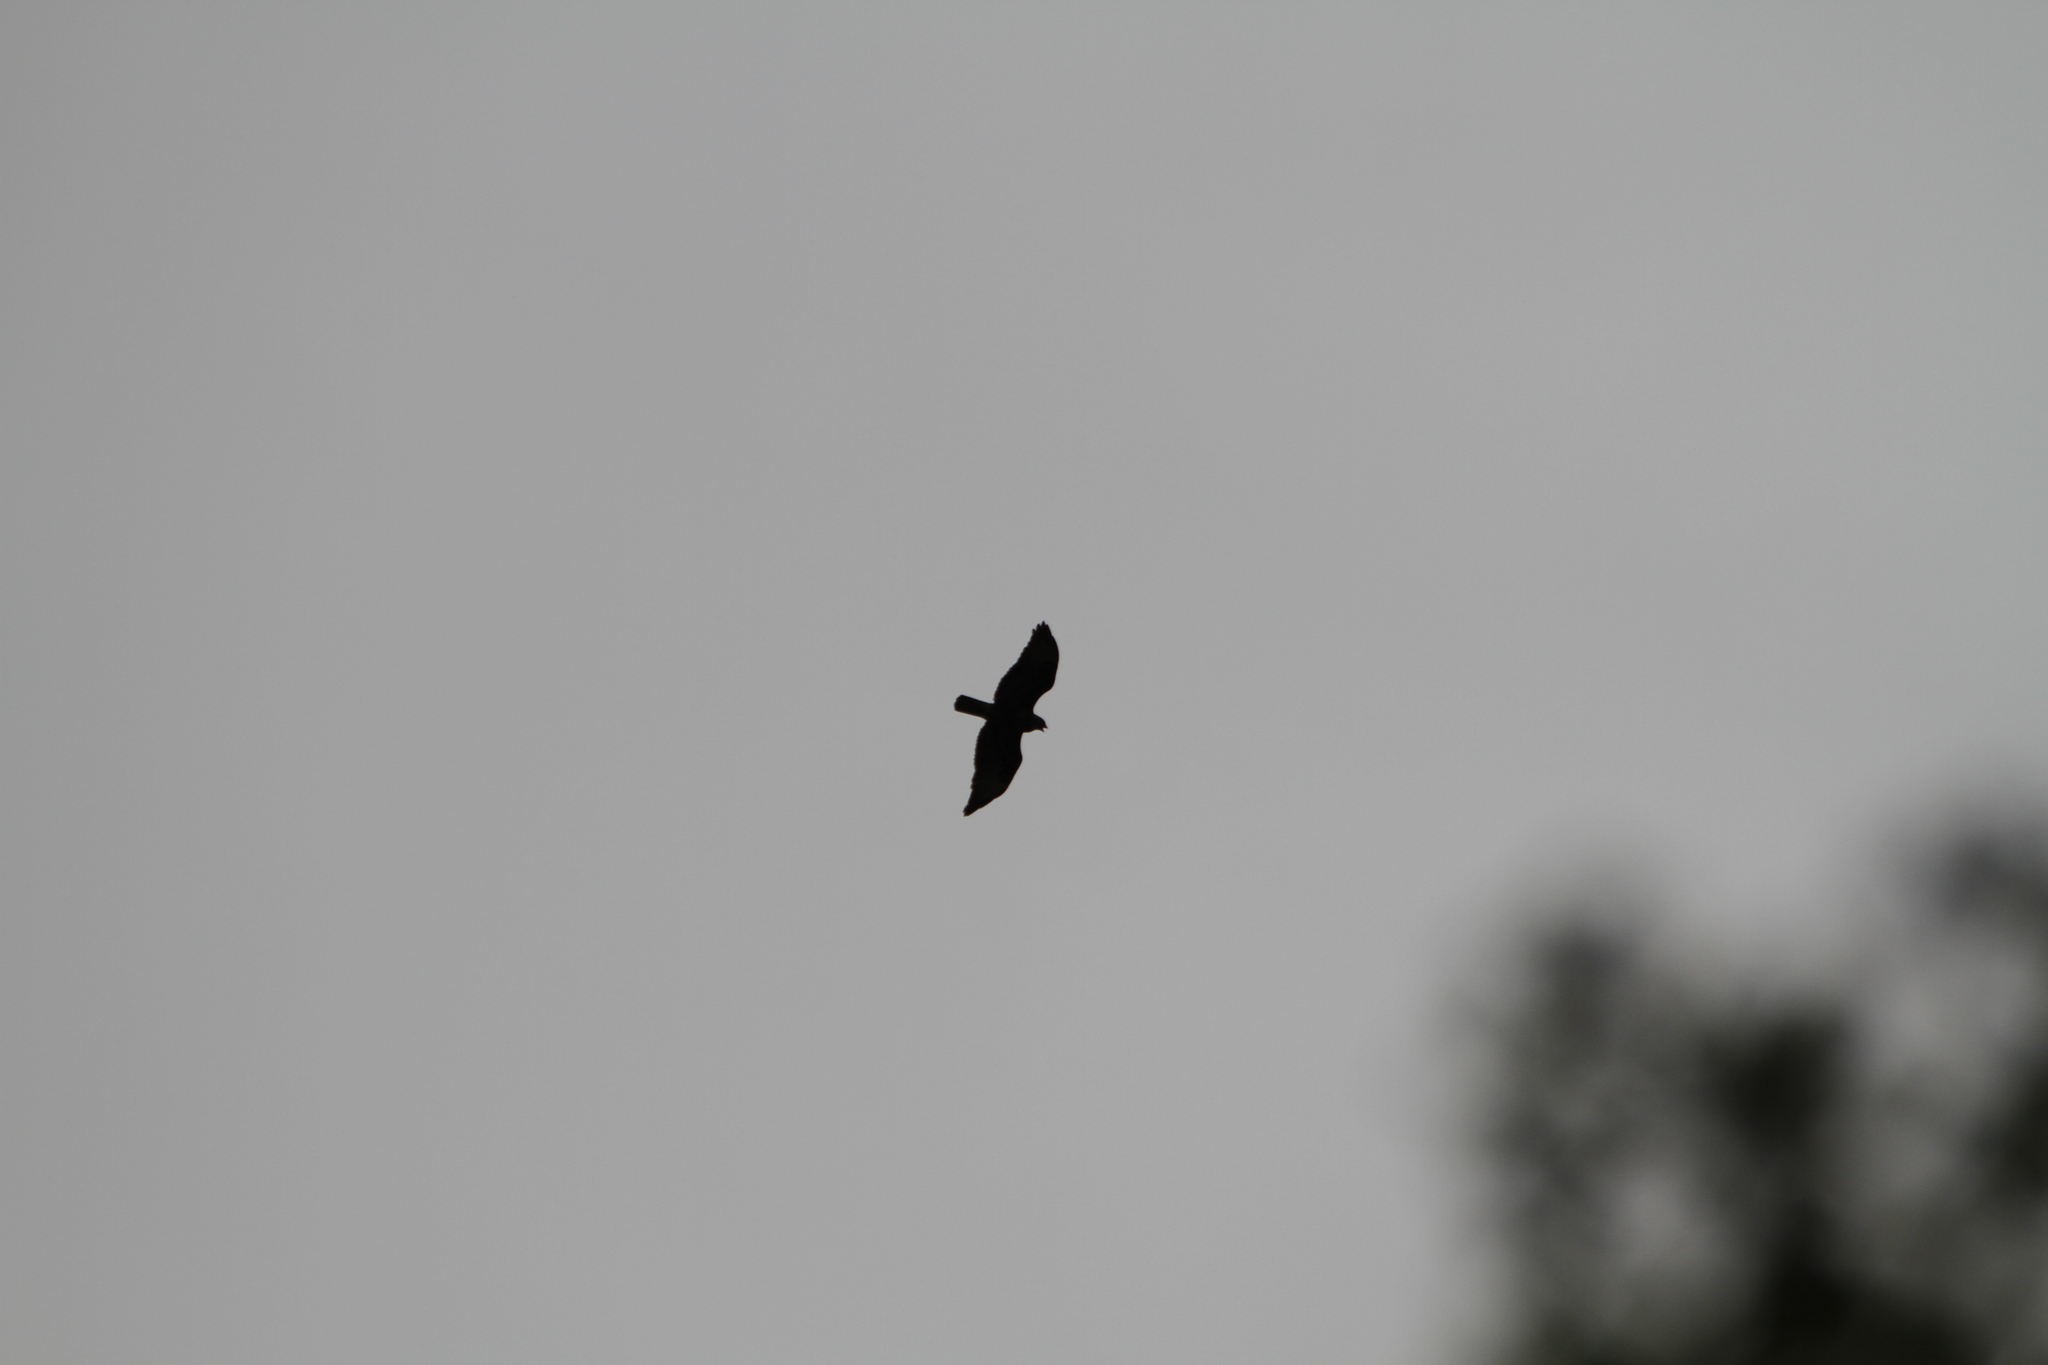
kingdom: Animalia
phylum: Chordata
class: Aves
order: Accipitriformes
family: Accipitridae
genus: Buteo
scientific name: Buteo buteo
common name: Common buzzard
